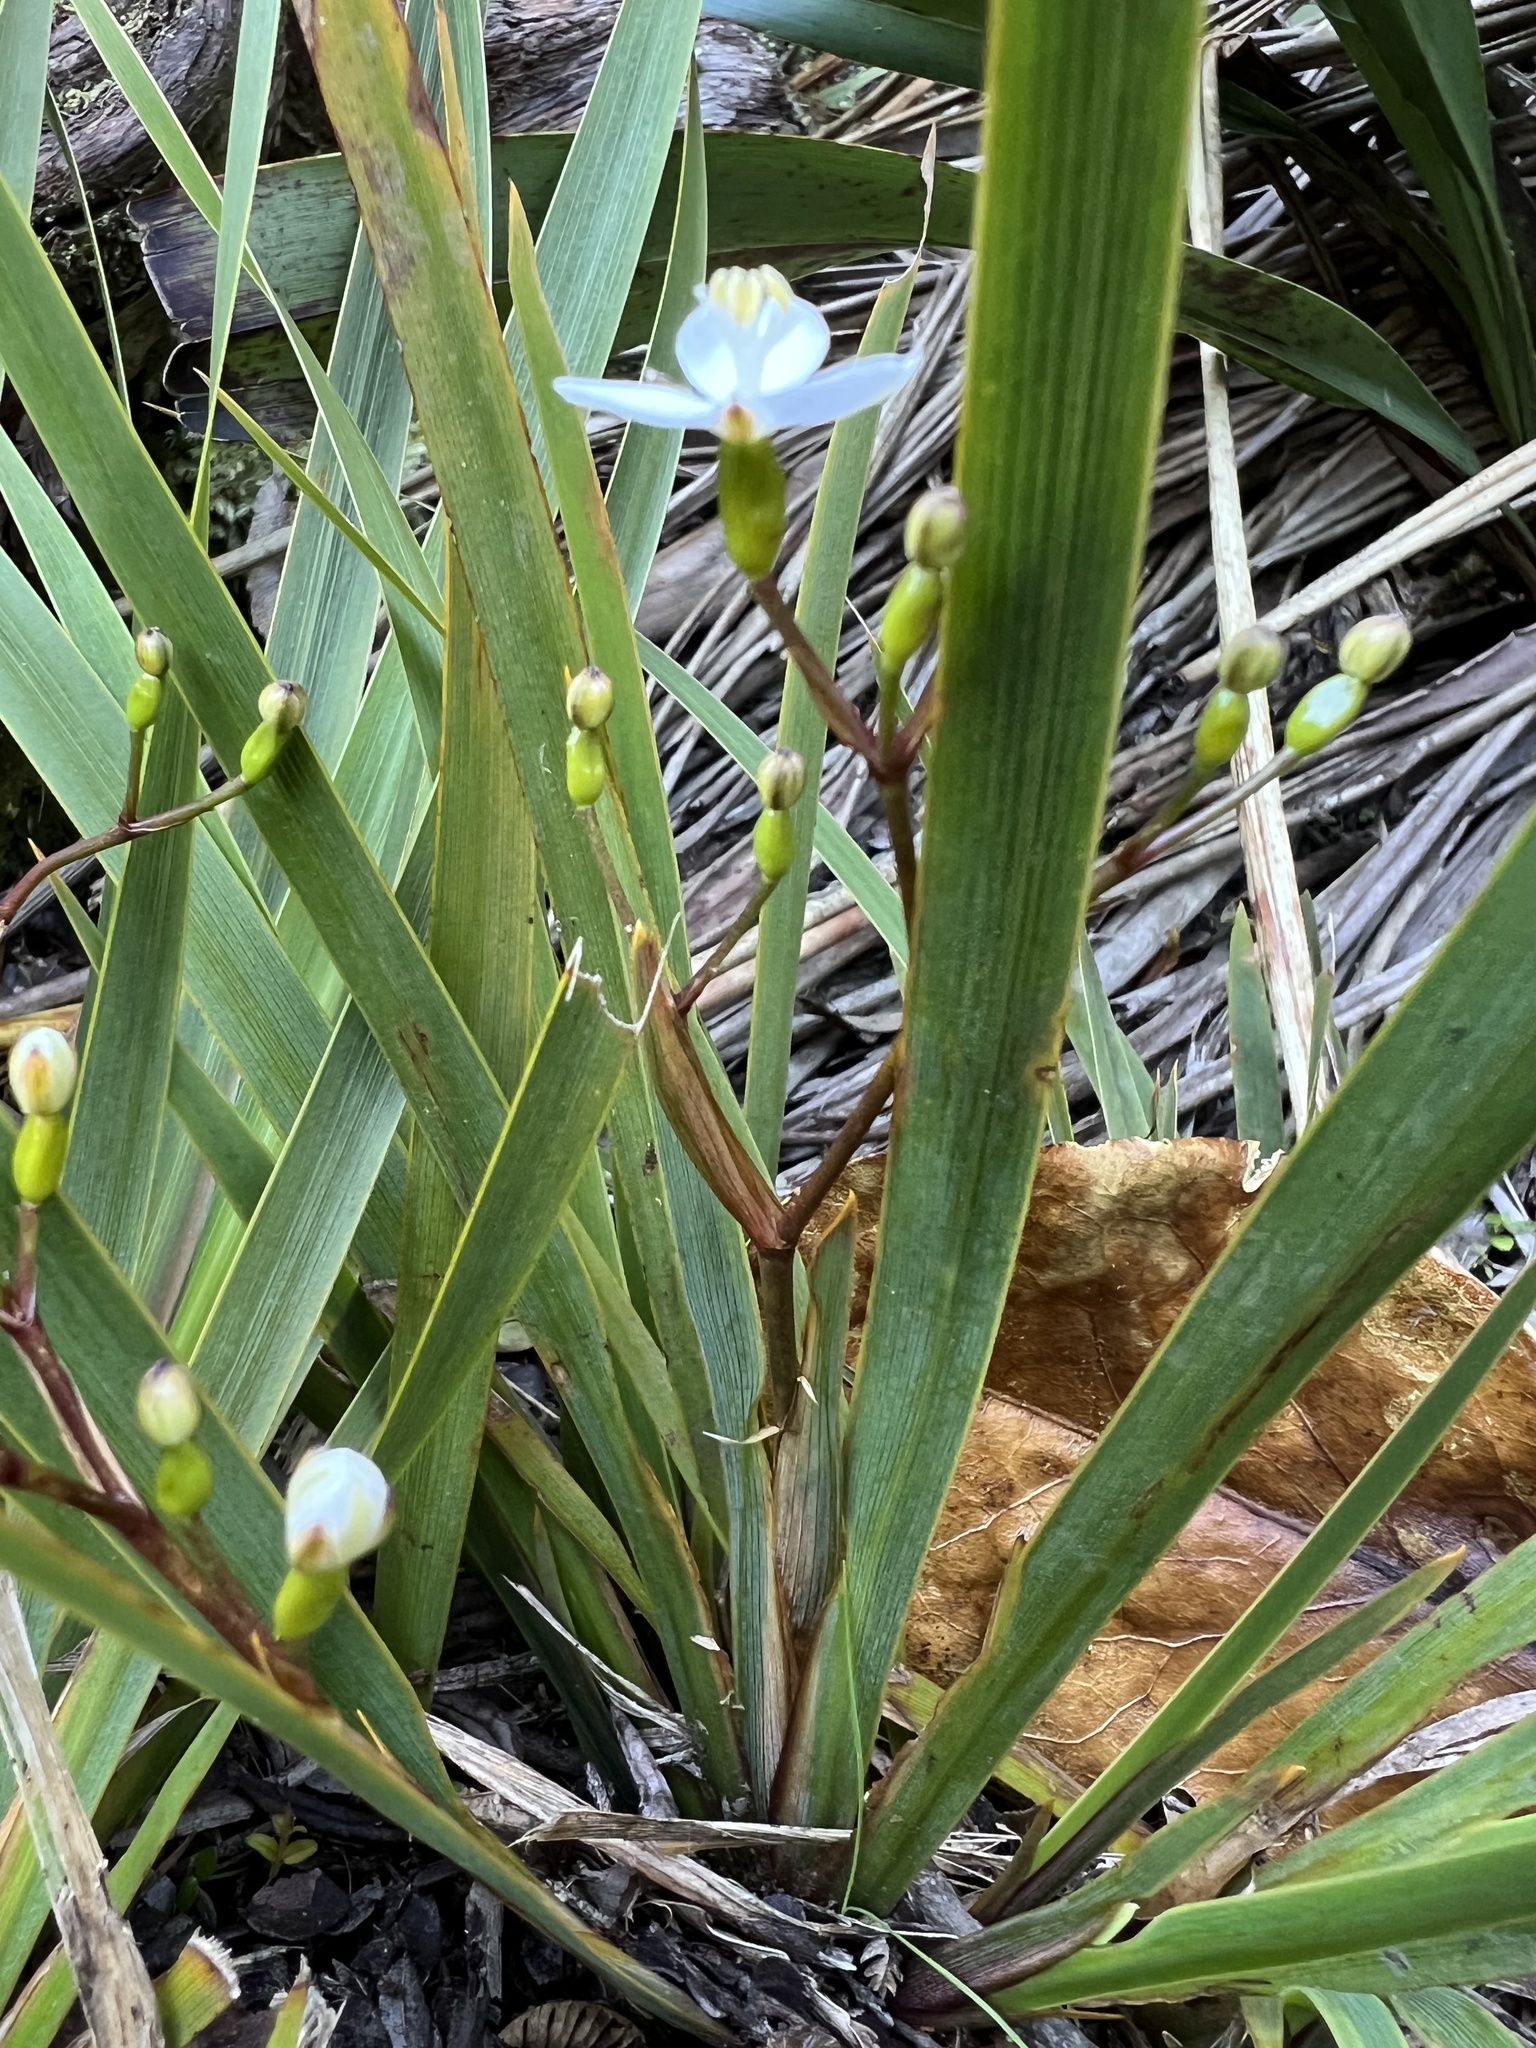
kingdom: Plantae
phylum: Tracheophyta
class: Liliopsida
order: Asparagales
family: Iridaceae
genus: Libertia
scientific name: Libertia ixioides
